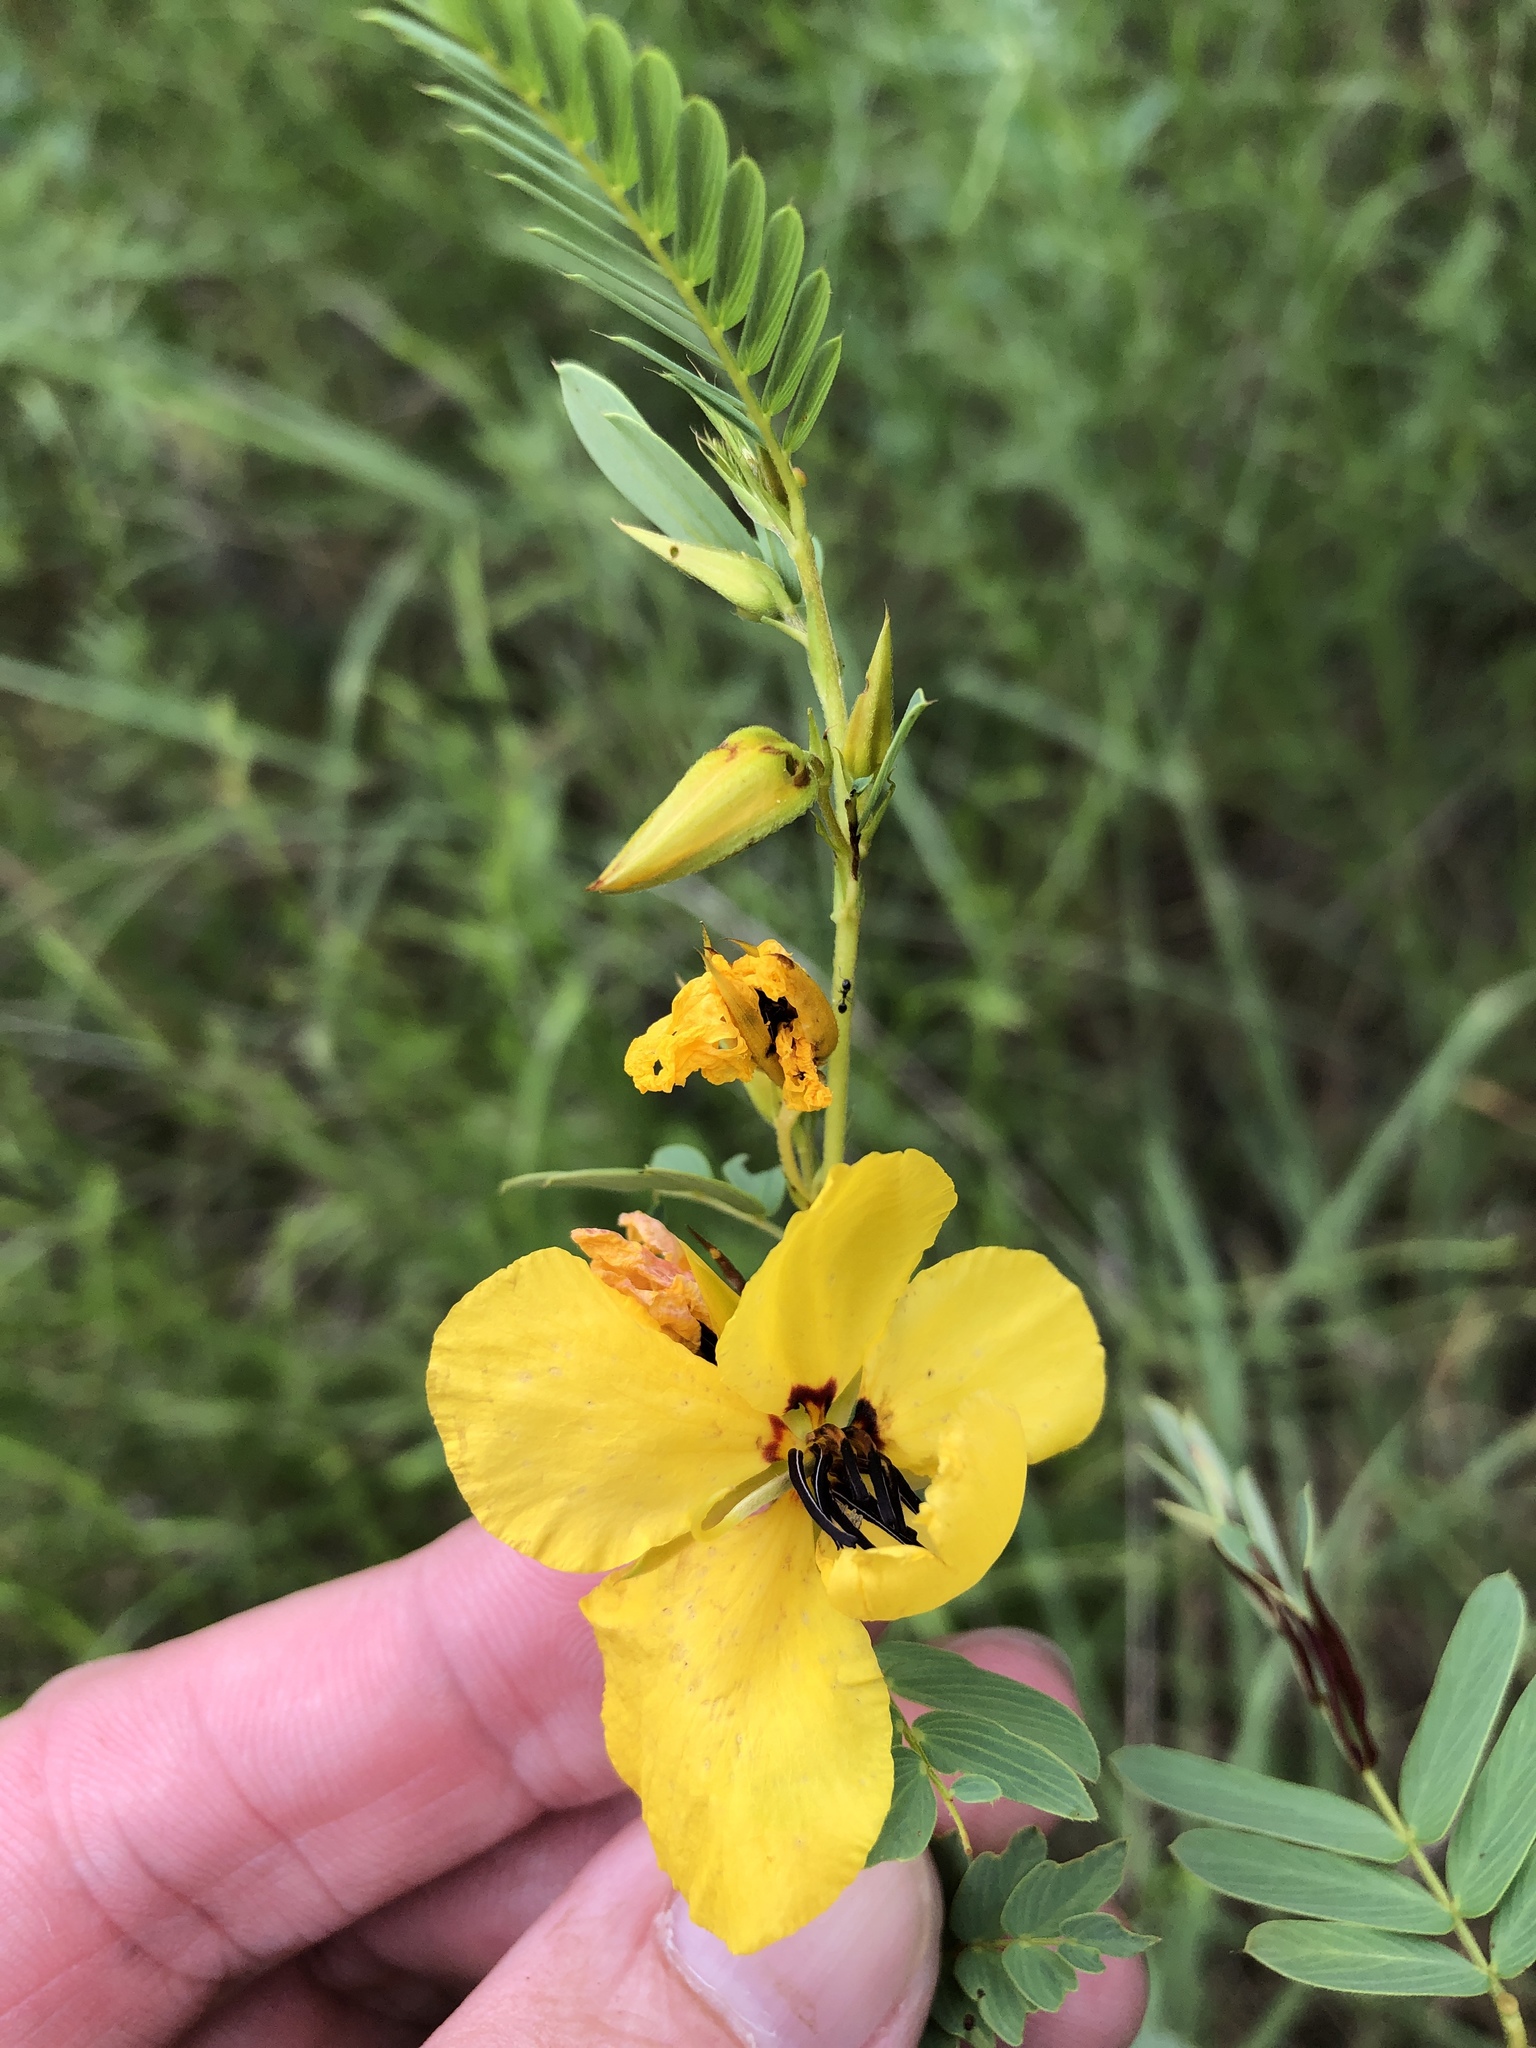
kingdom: Plantae
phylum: Tracheophyta
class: Magnoliopsida
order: Fabales
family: Fabaceae
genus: Chamaecrista
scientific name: Chamaecrista fasciculata
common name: Golden cassia
